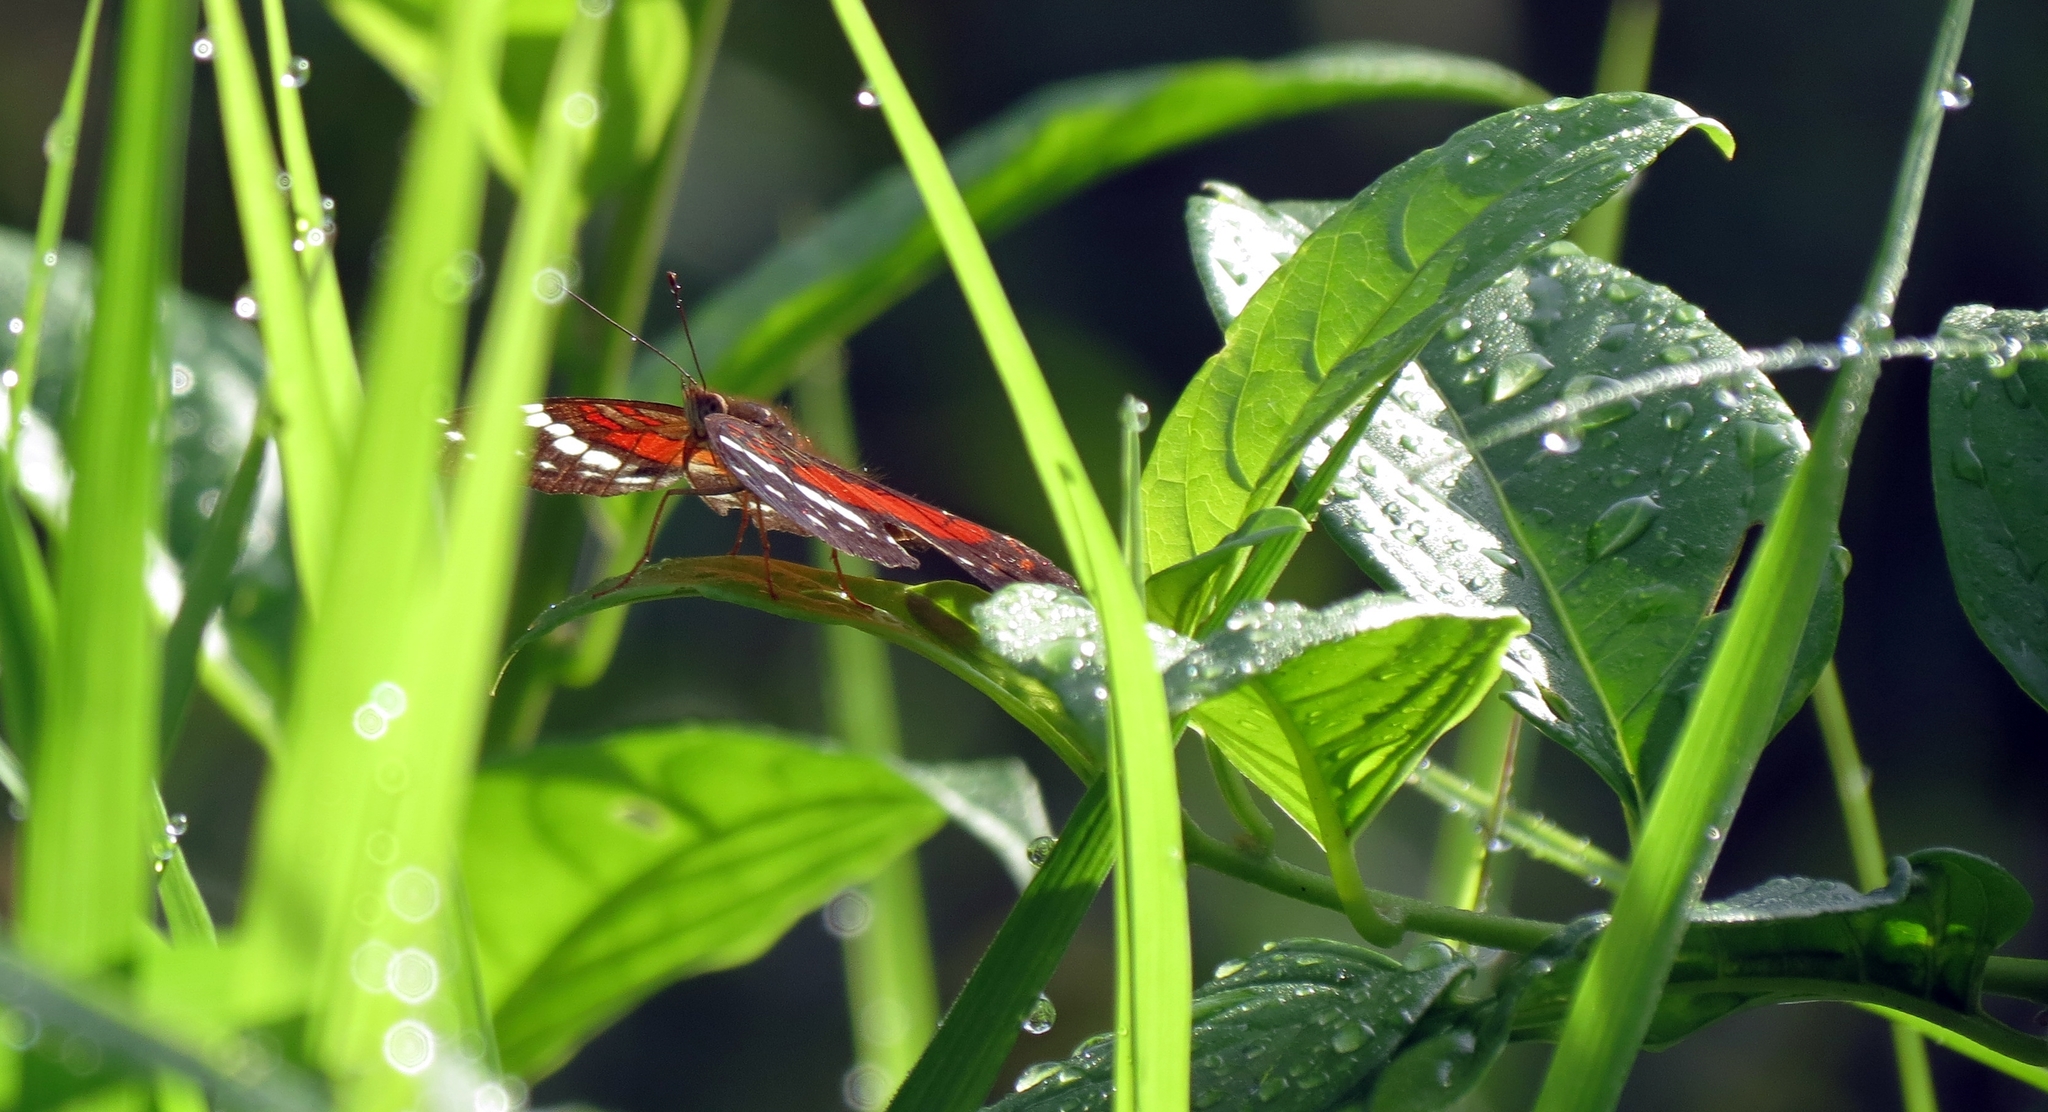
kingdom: Animalia
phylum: Arthropoda
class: Insecta
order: Lepidoptera
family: Nymphalidae
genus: Anartia
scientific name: Anartia amathea
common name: Red peacock
